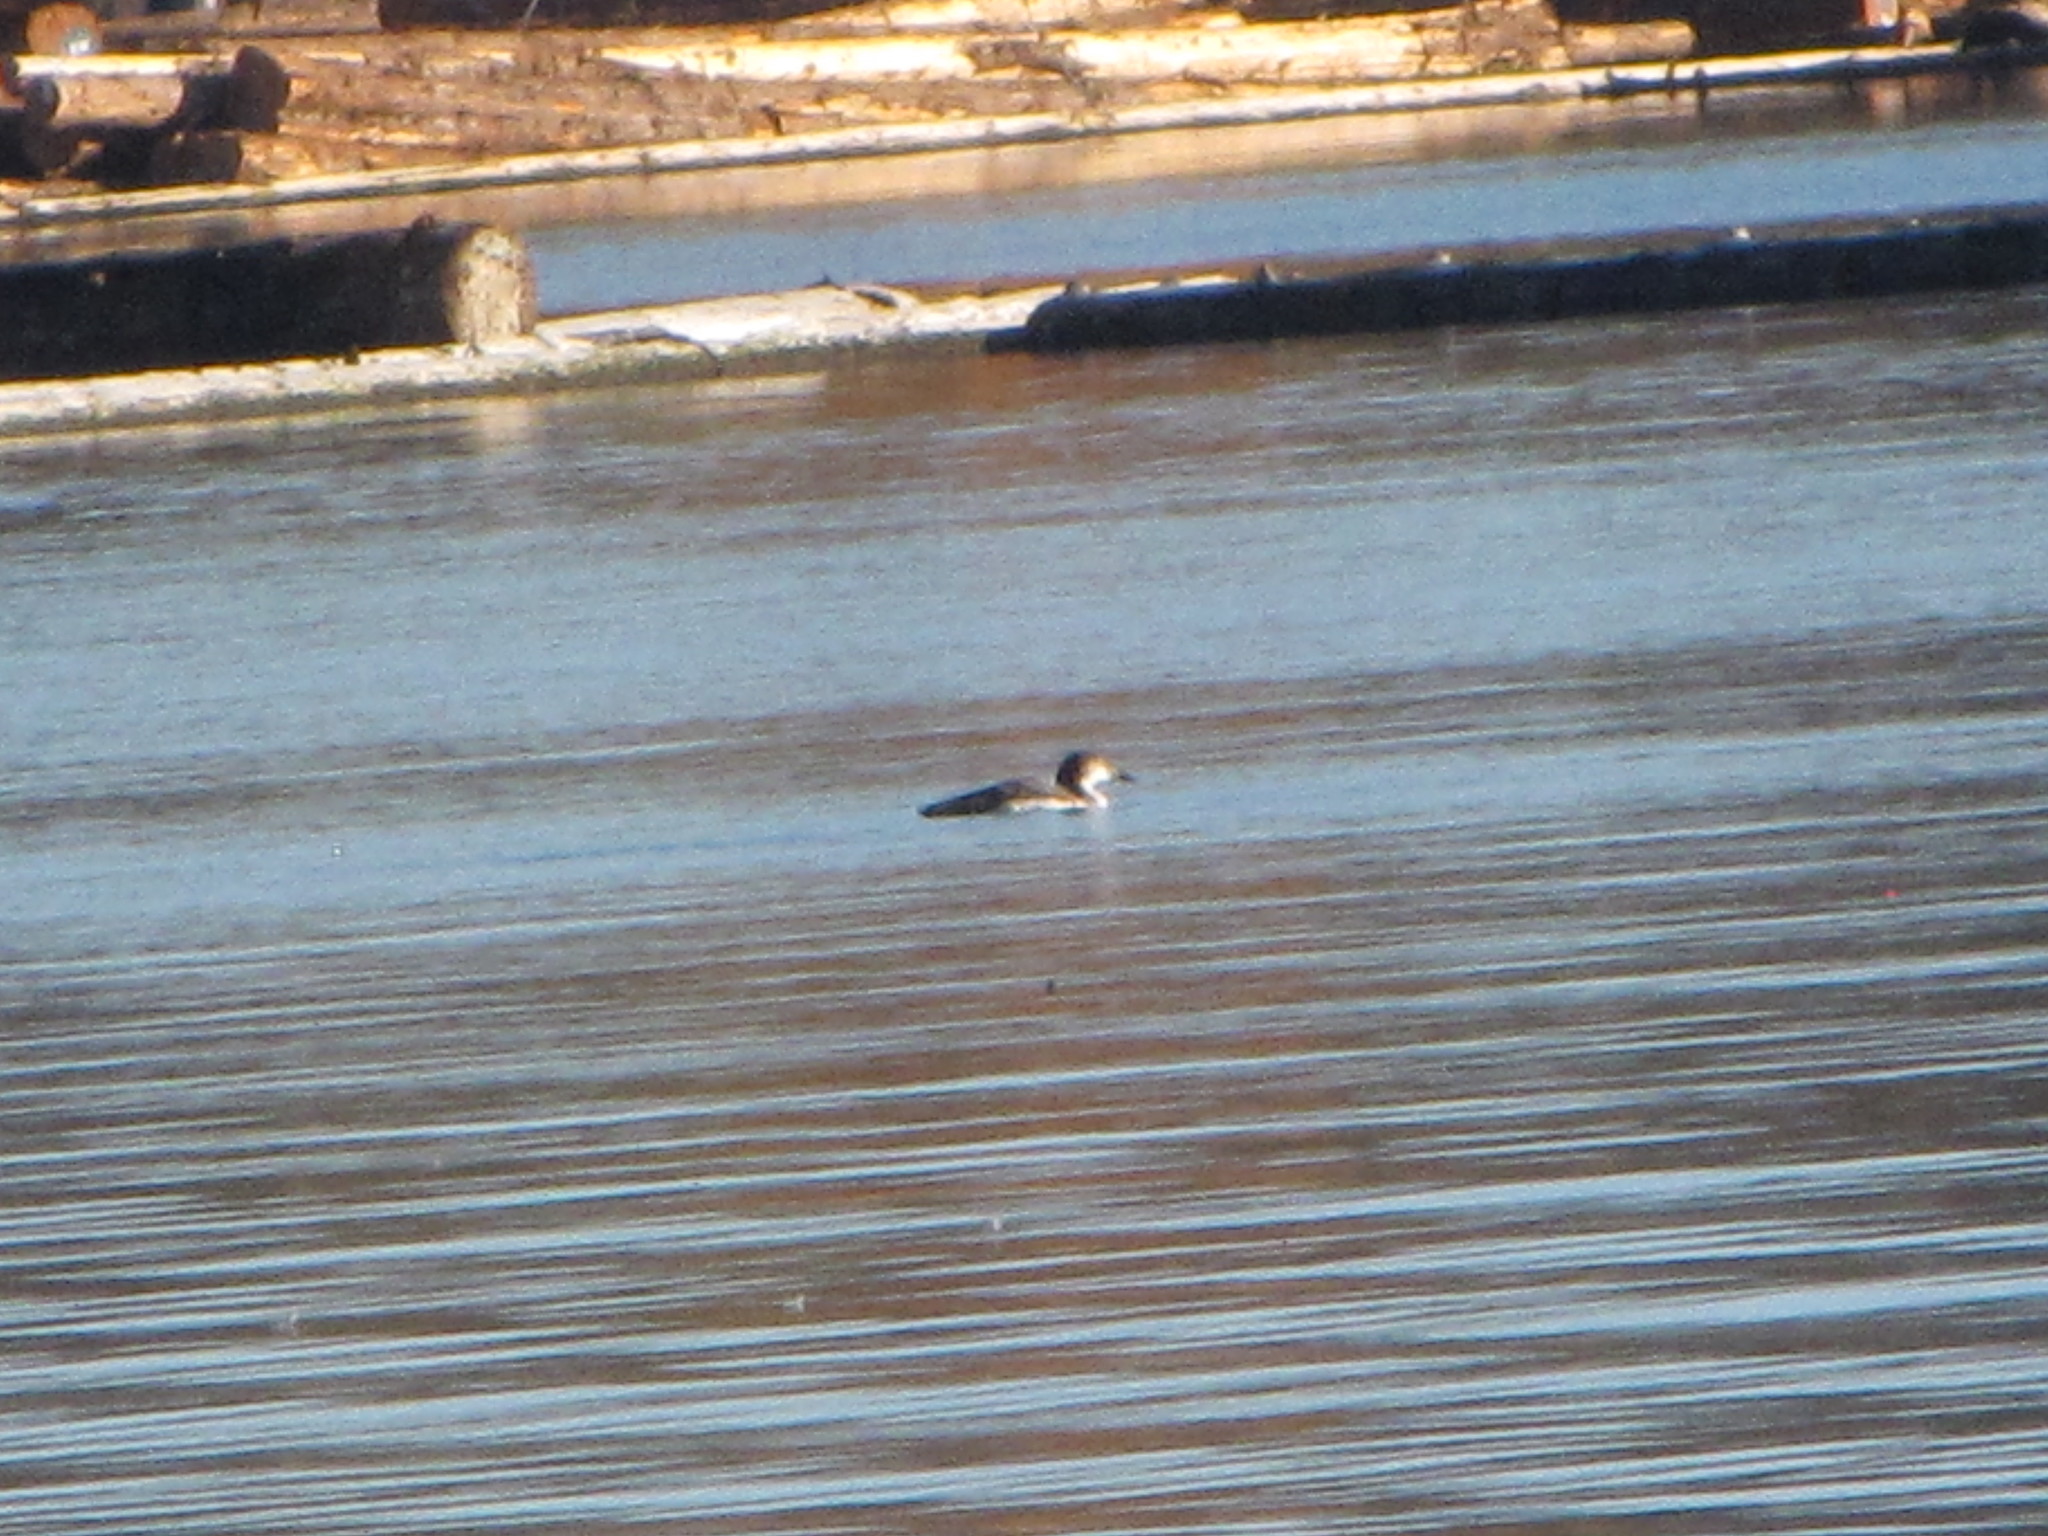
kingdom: Animalia
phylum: Chordata
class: Aves
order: Gaviiformes
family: Gaviidae
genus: Gavia
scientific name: Gavia immer
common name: Common loon
